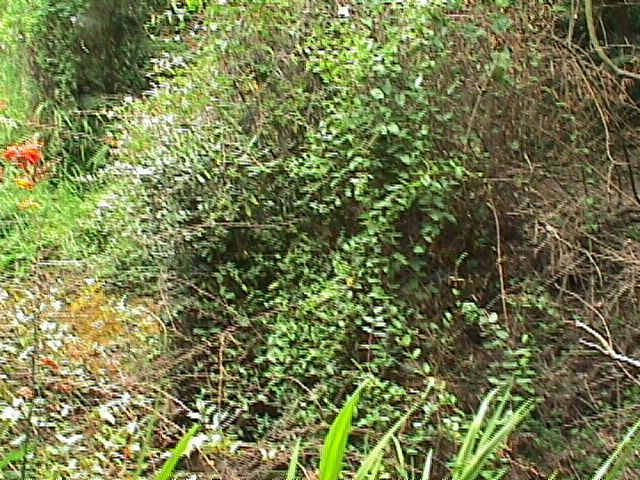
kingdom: Plantae
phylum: Tracheophyta
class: Magnoliopsida
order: Rosales
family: Elaeagnaceae
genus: Elaeagnus
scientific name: Elaeagnus reflexa
